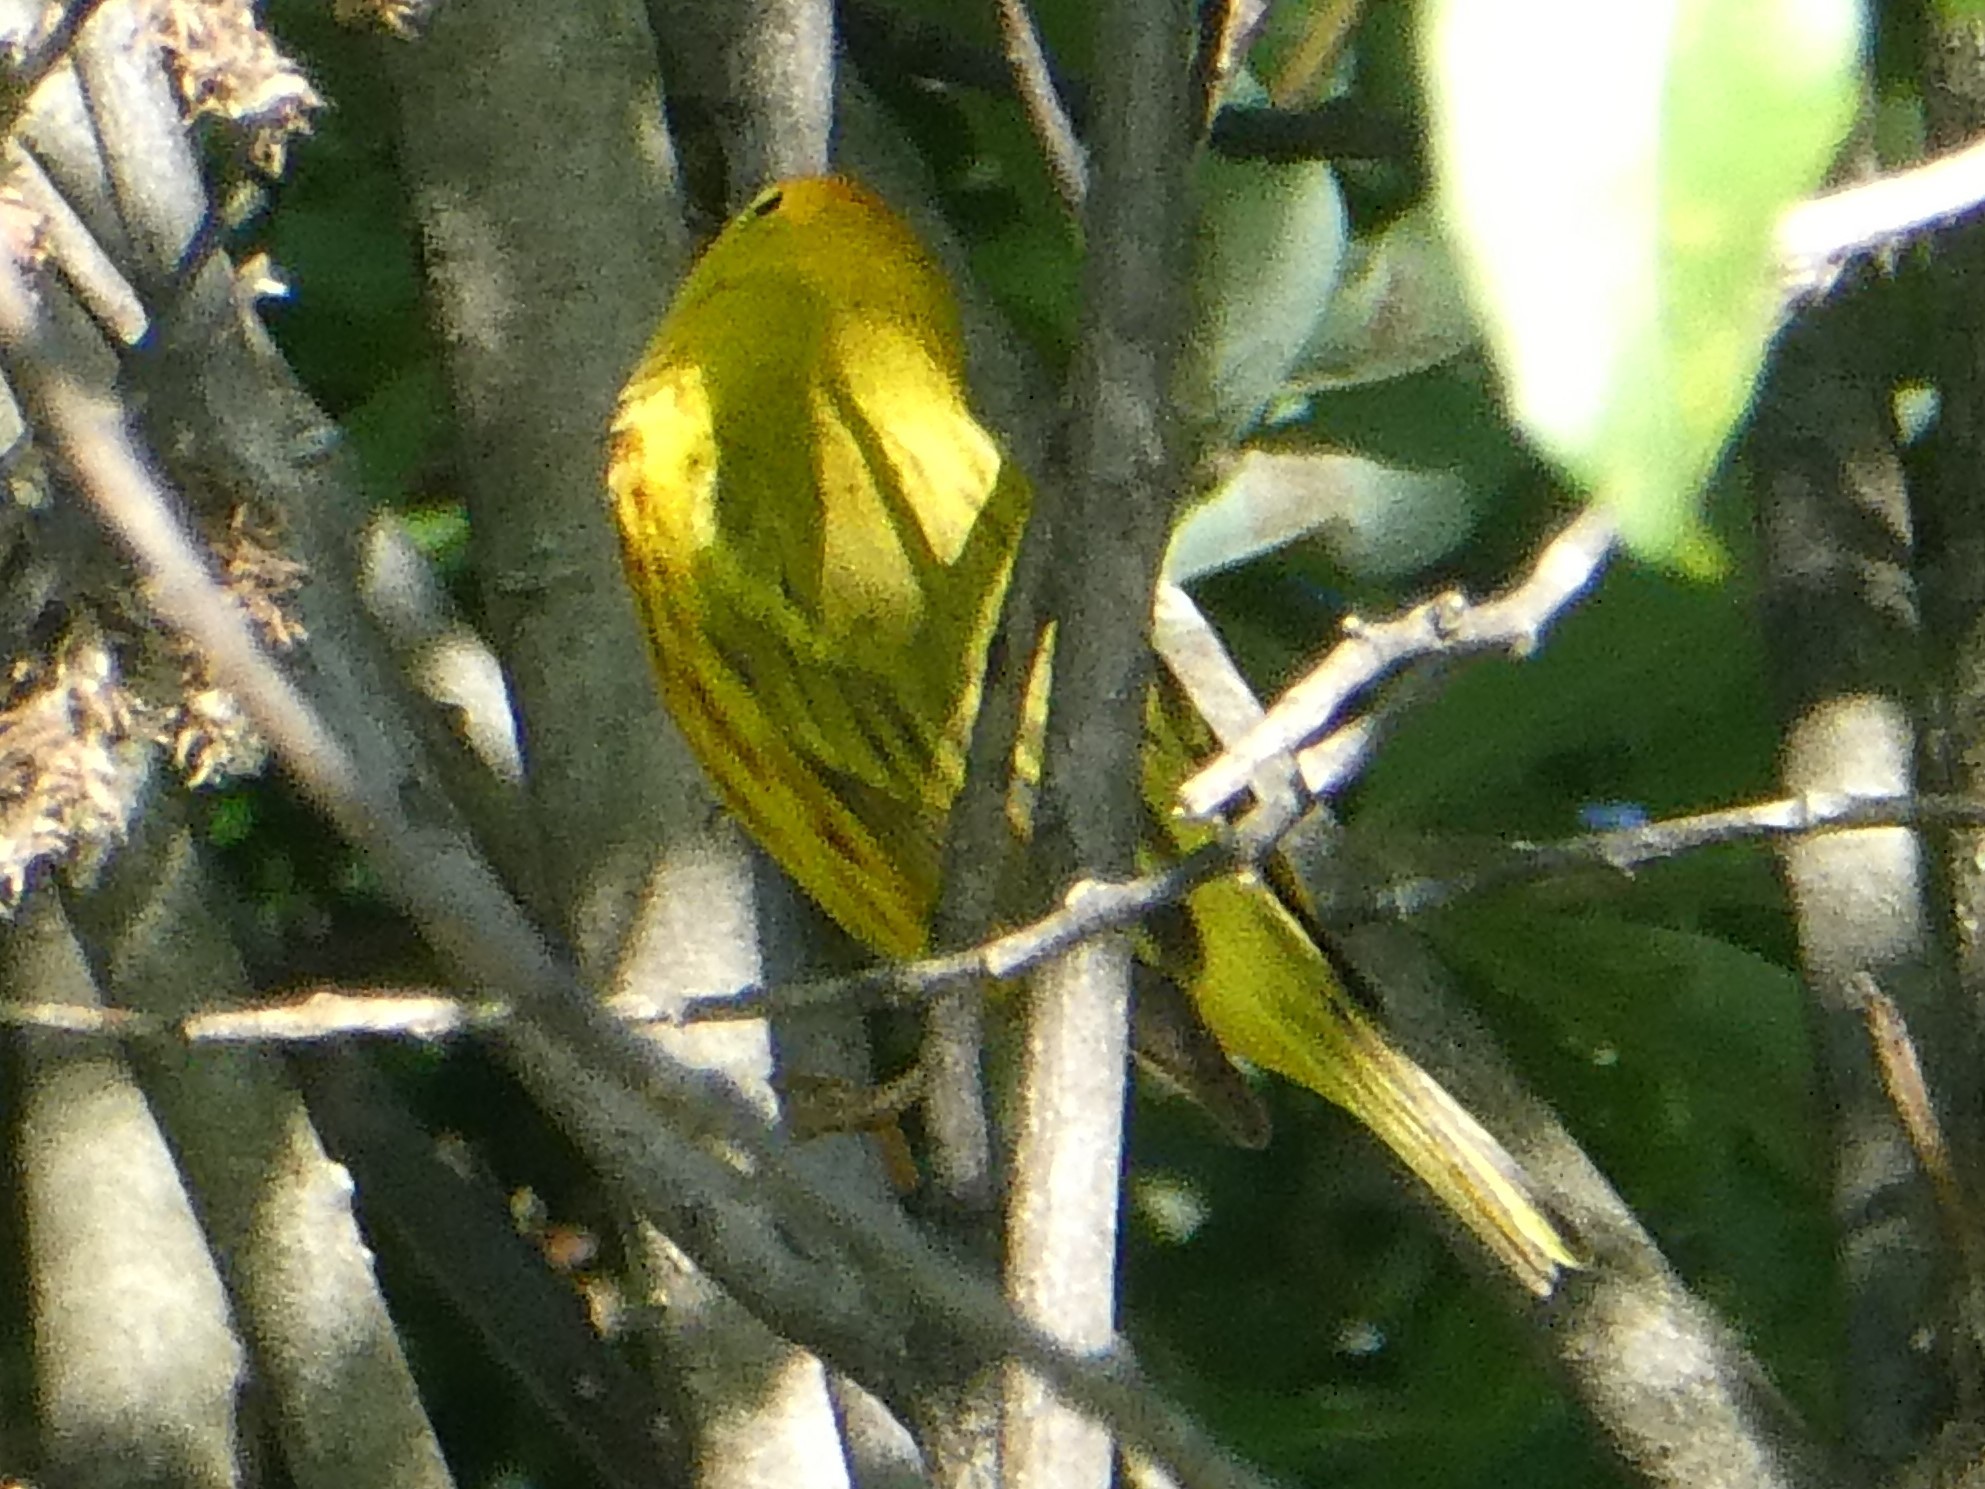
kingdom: Animalia
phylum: Chordata
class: Aves
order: Passeriformes
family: Parulidae
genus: Setophaga
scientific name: Setophaga petechia
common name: Yellow warbler
